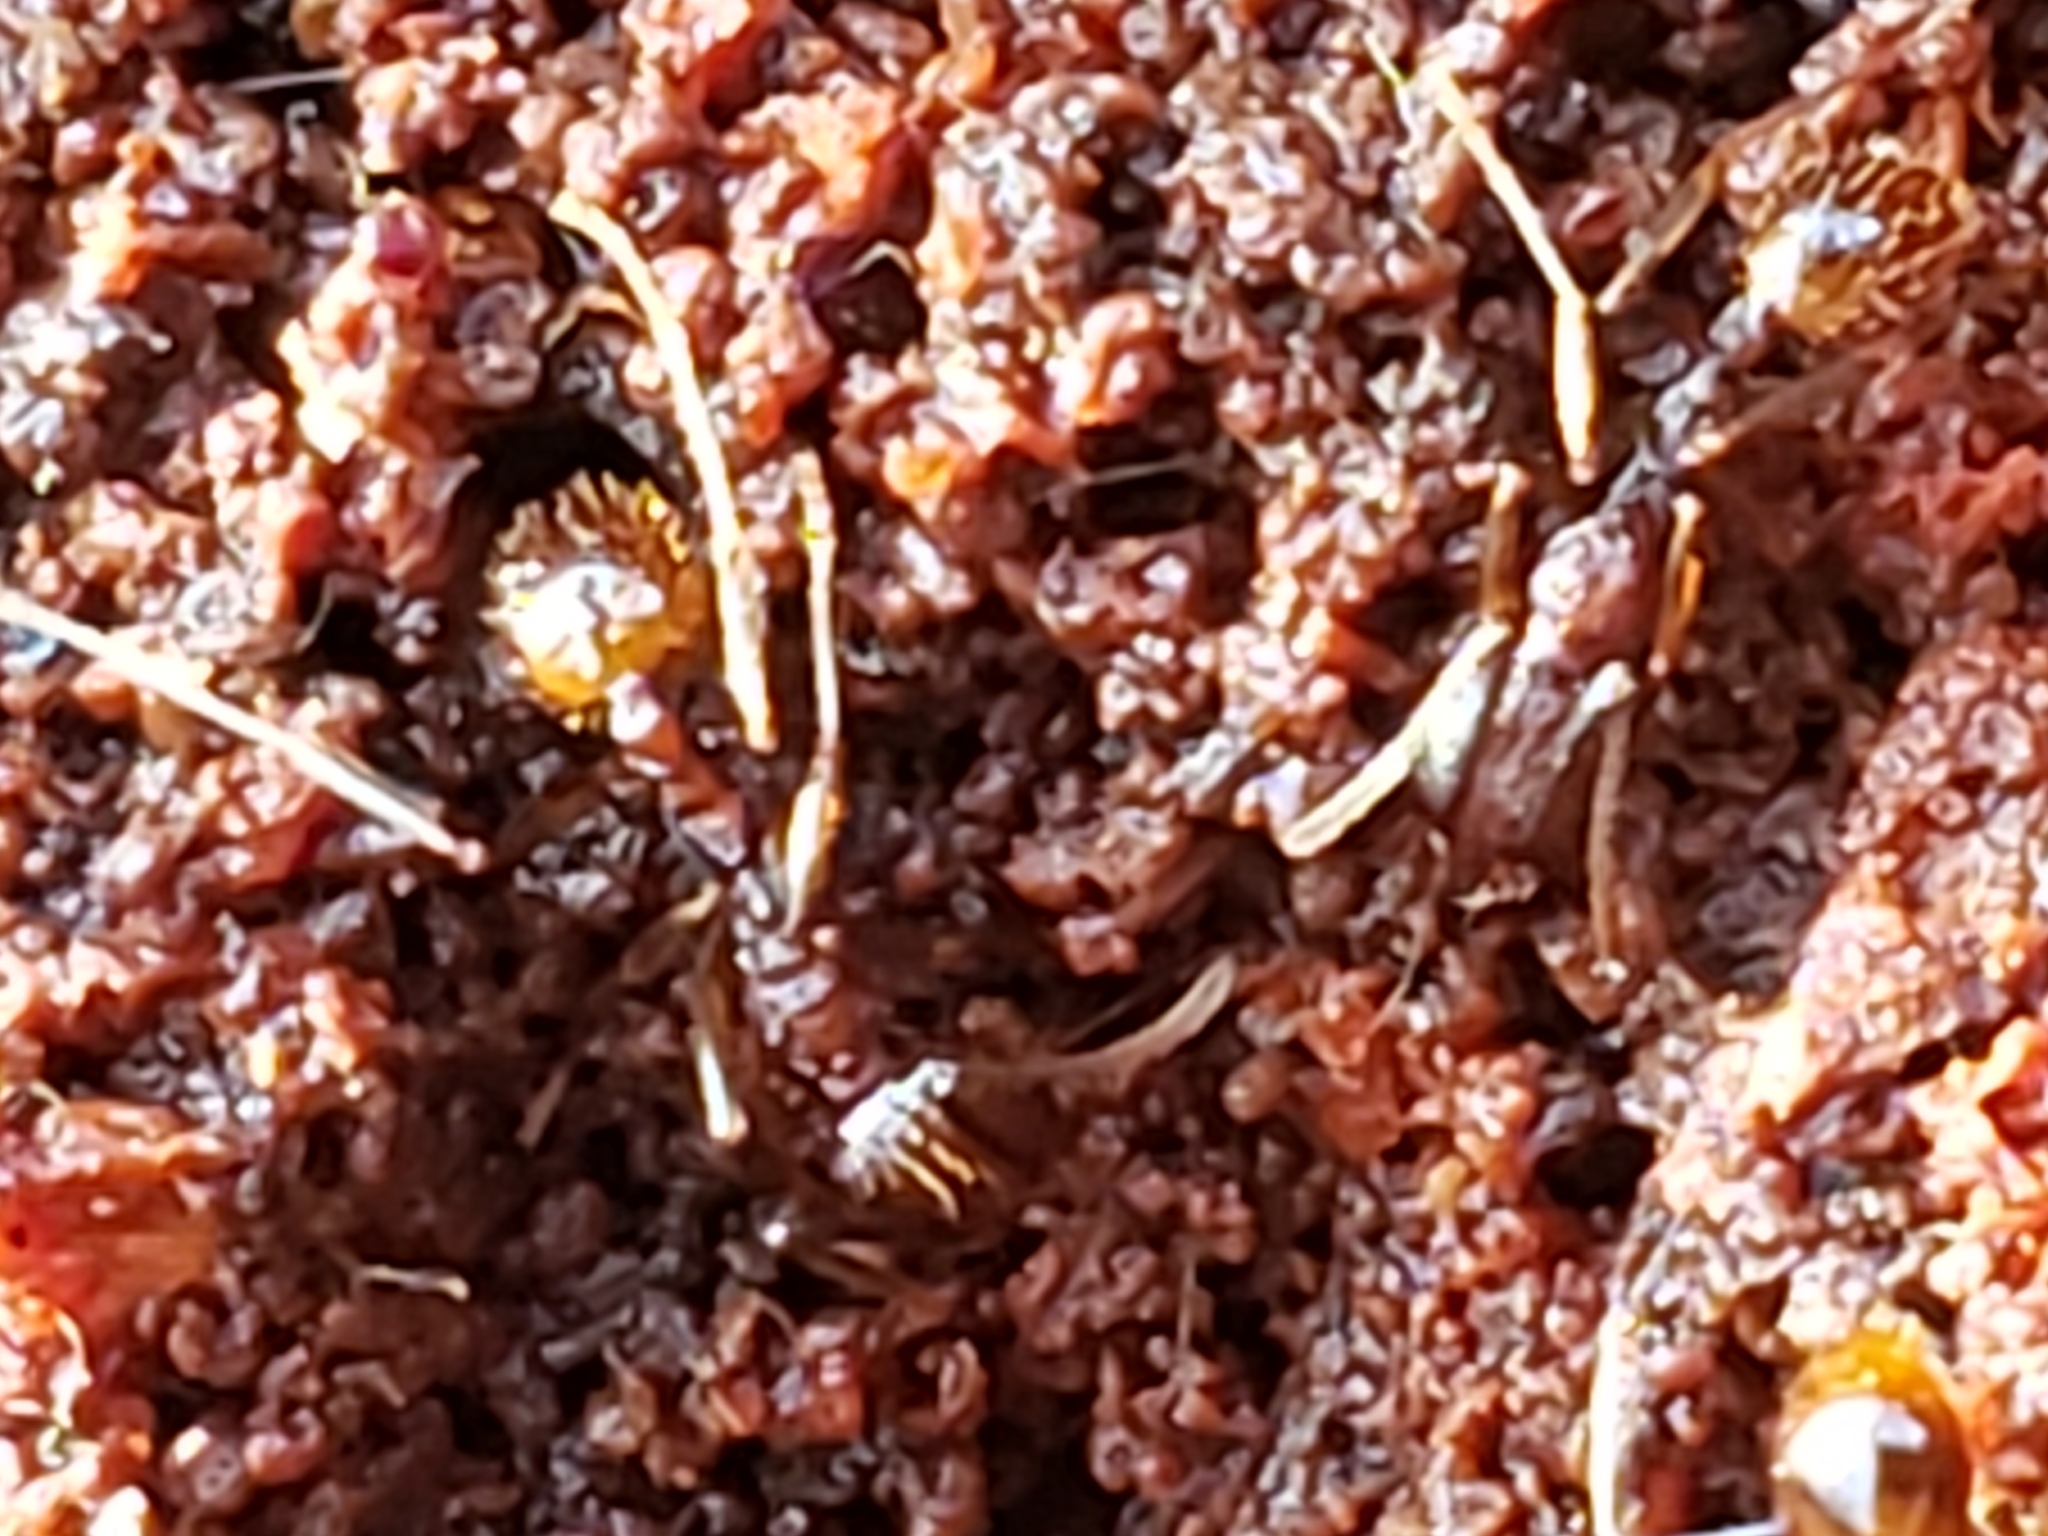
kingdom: Animalia
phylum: Arthropoda
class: Insecta
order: Hymenoptera
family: Formicidae
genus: Aphaenogaster
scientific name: Aphaenogaster fulva
